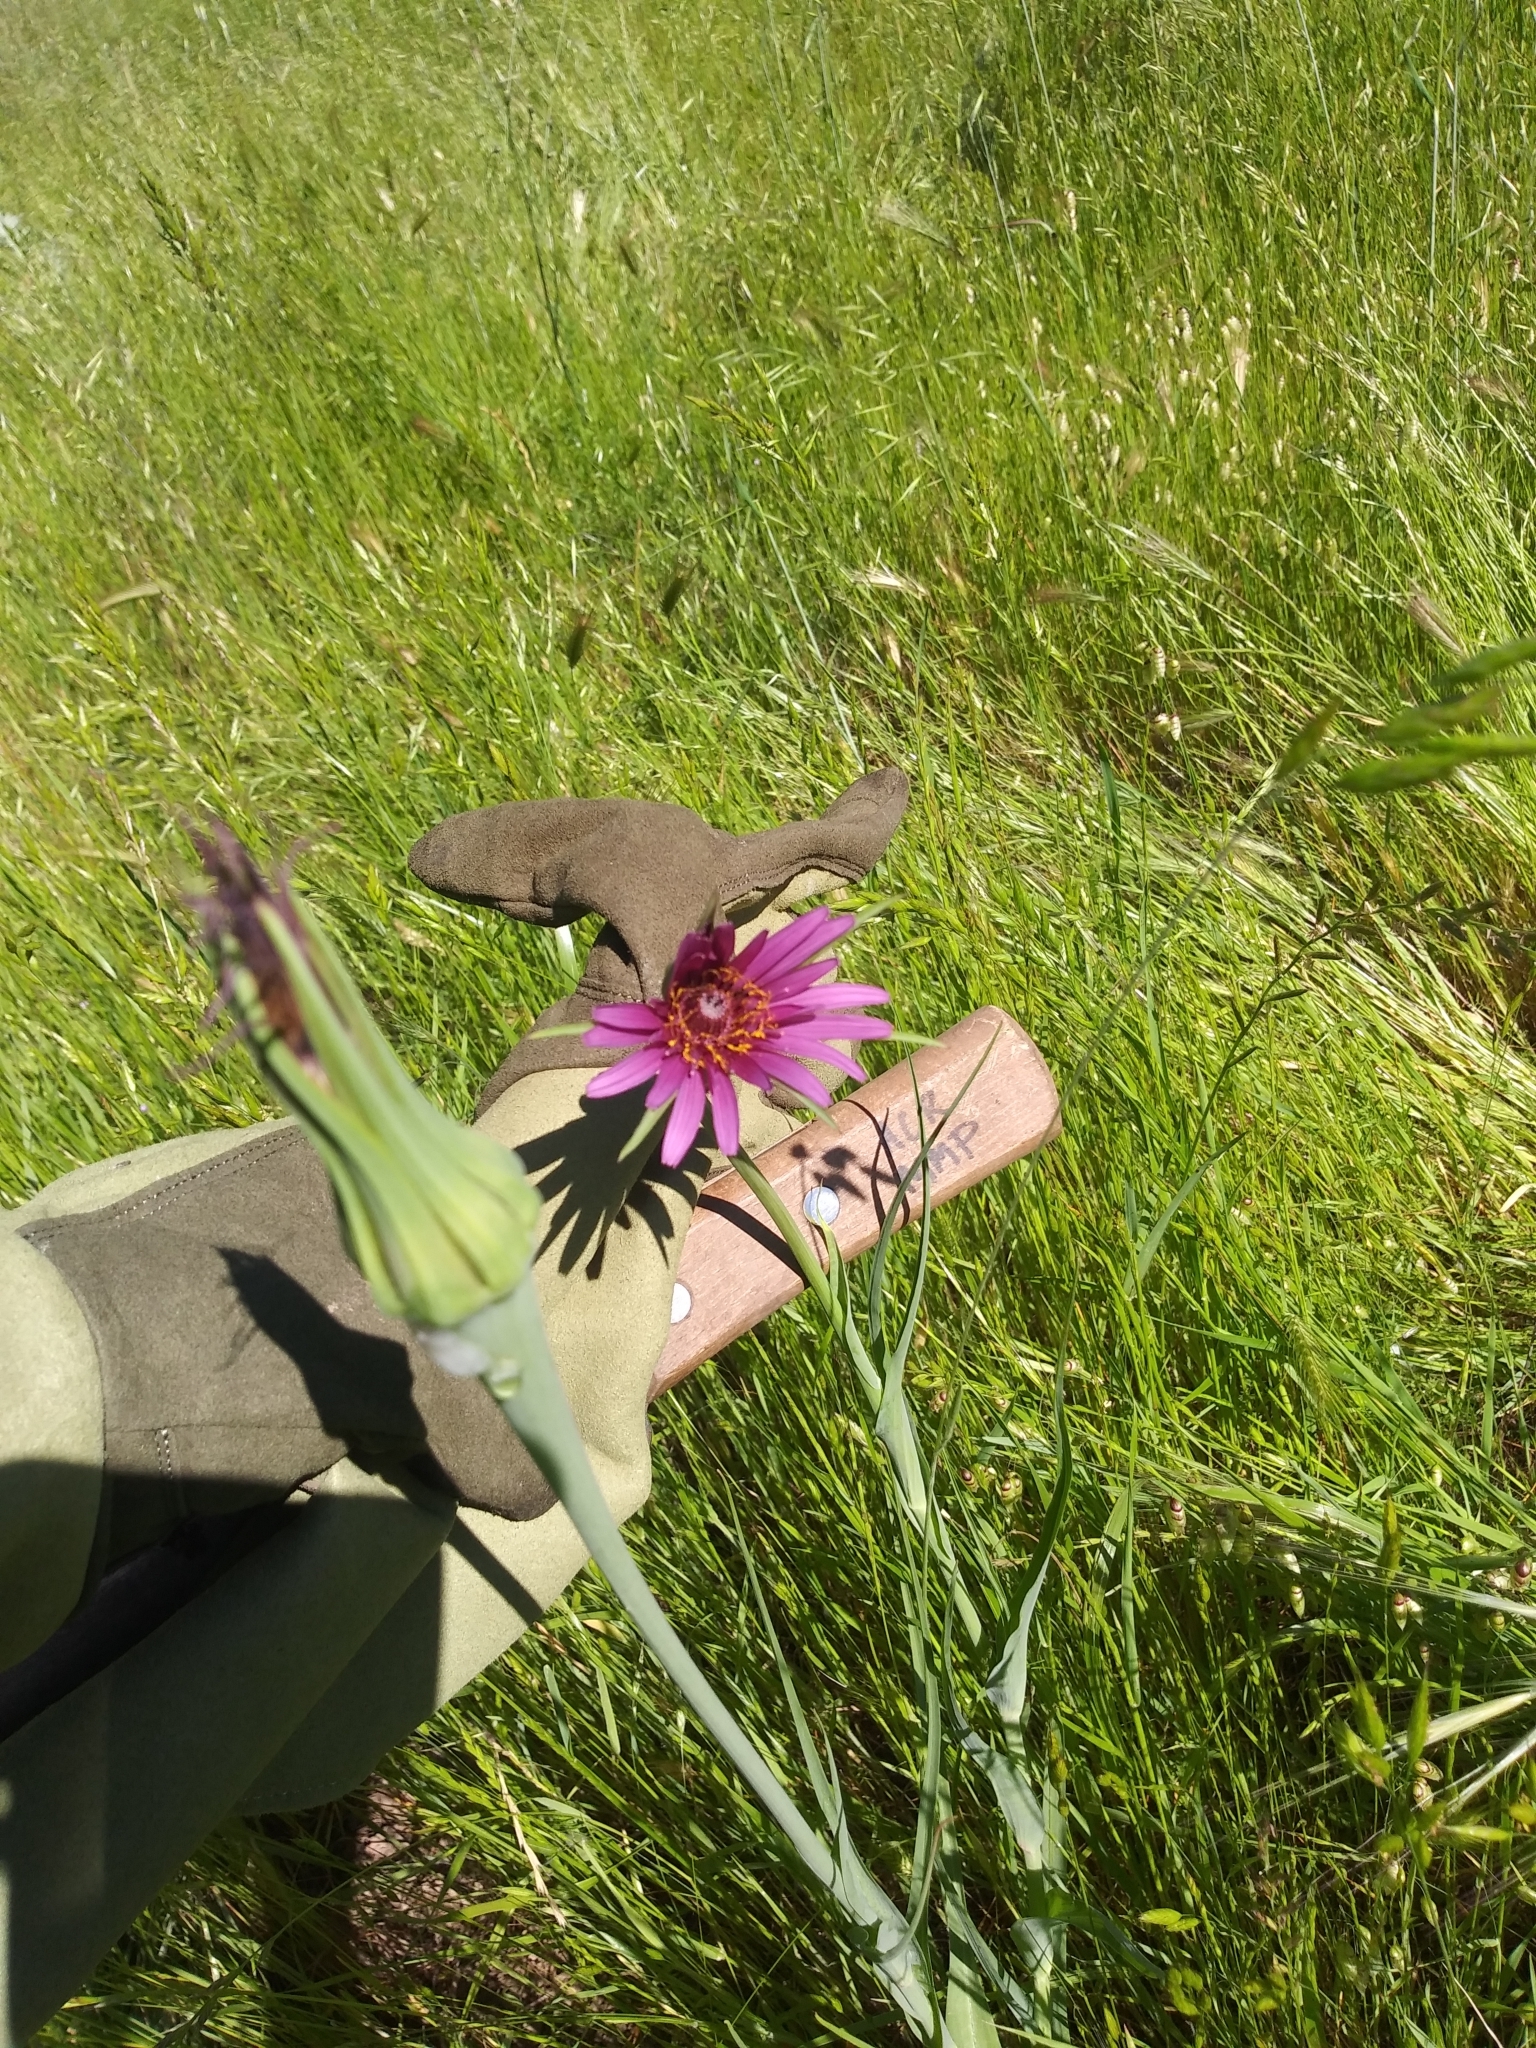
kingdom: Plantae
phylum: Tracheophyta
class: Magnoliopsida
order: Asterales
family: Asteraceae
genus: Tragopogon
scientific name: Tragopogon porrifolius
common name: Salsify
